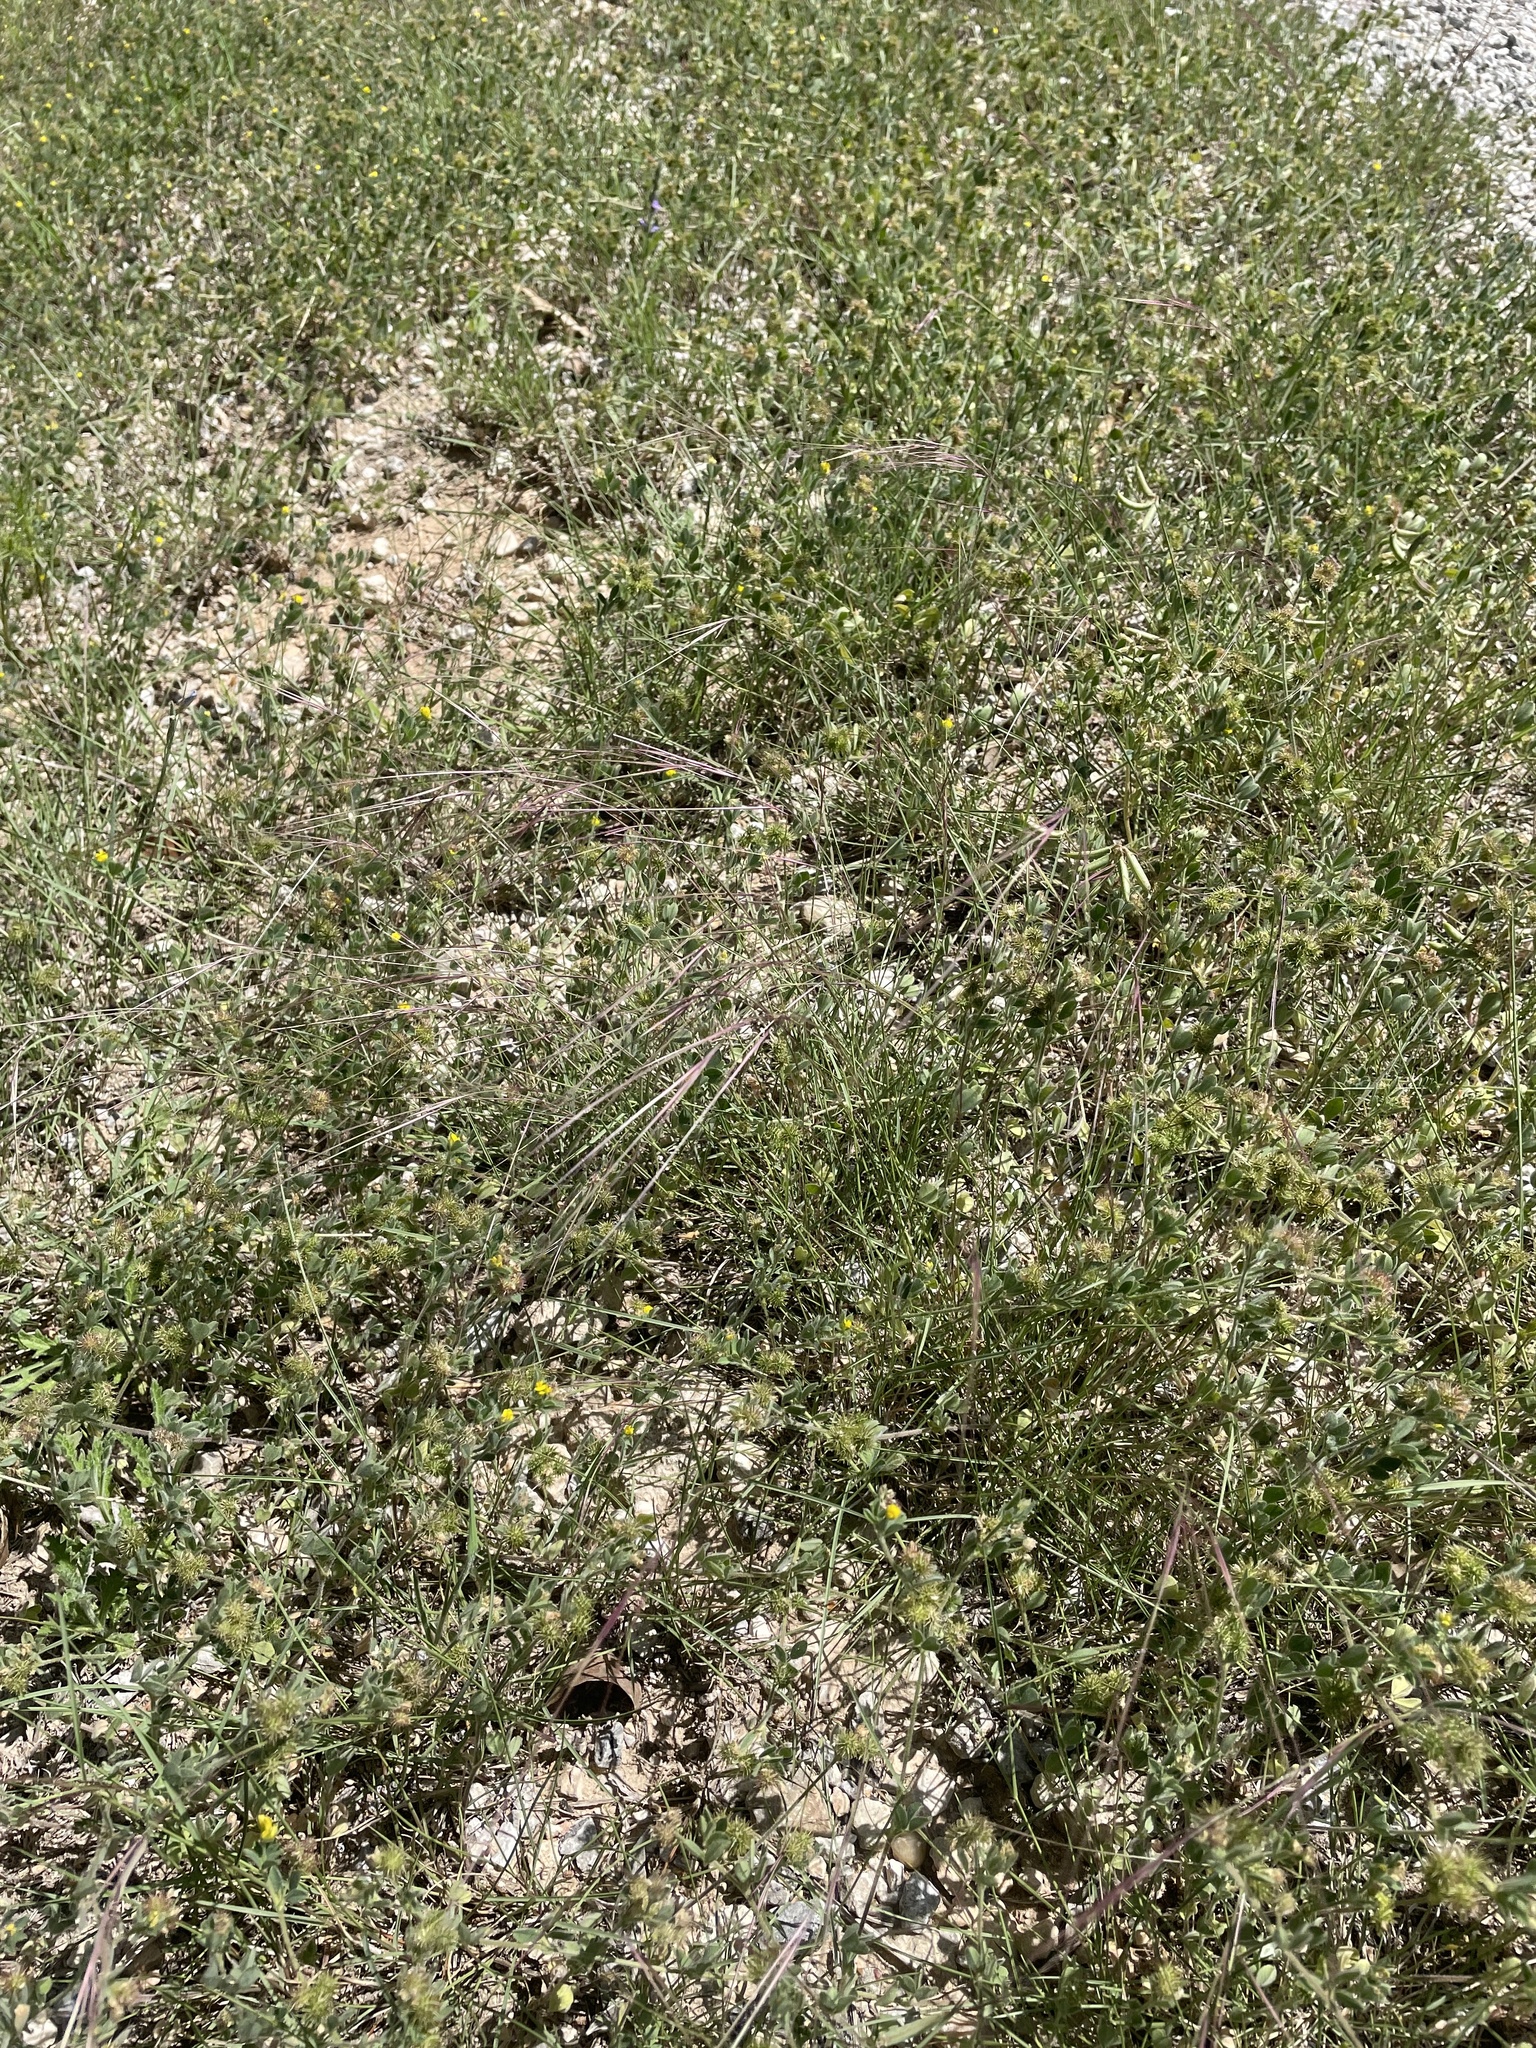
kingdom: Plantae
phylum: Tracheophyta
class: Liliopsida
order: Poales
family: Poaceae
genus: Aristida
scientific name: Aristida purpurea
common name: Purple threeawn
